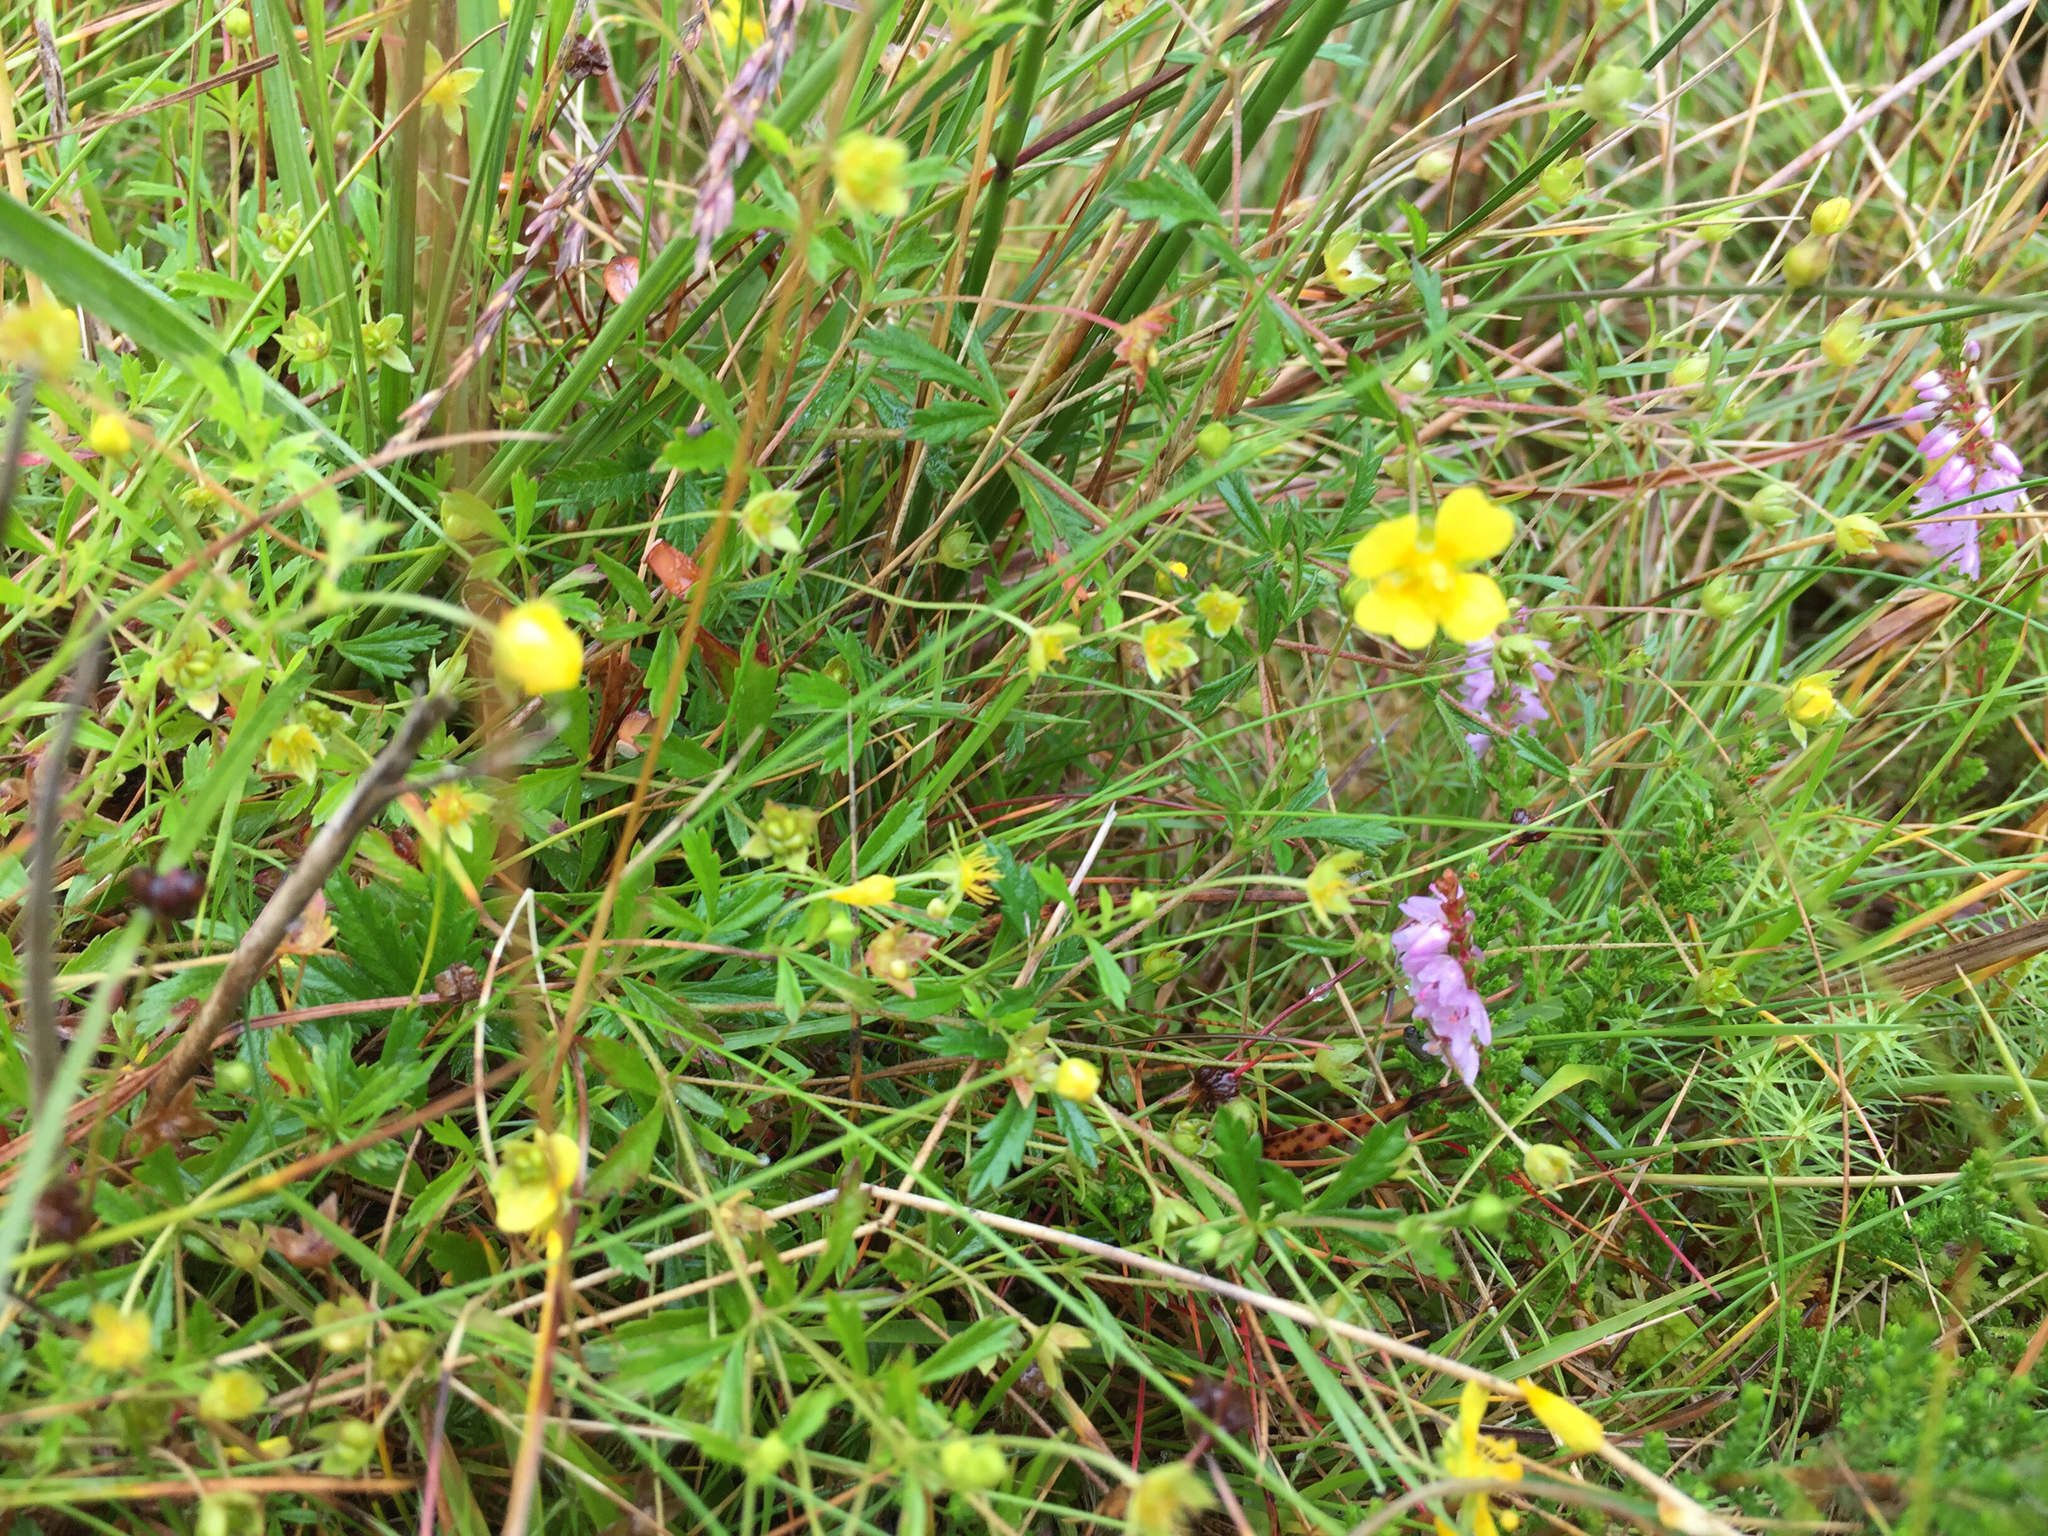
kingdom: Plantae
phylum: Tracheophyta
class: Magnoliopsida
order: Rosales
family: Rosaceae
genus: Potentilla
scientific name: Potentilla erecta
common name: Tormentil
